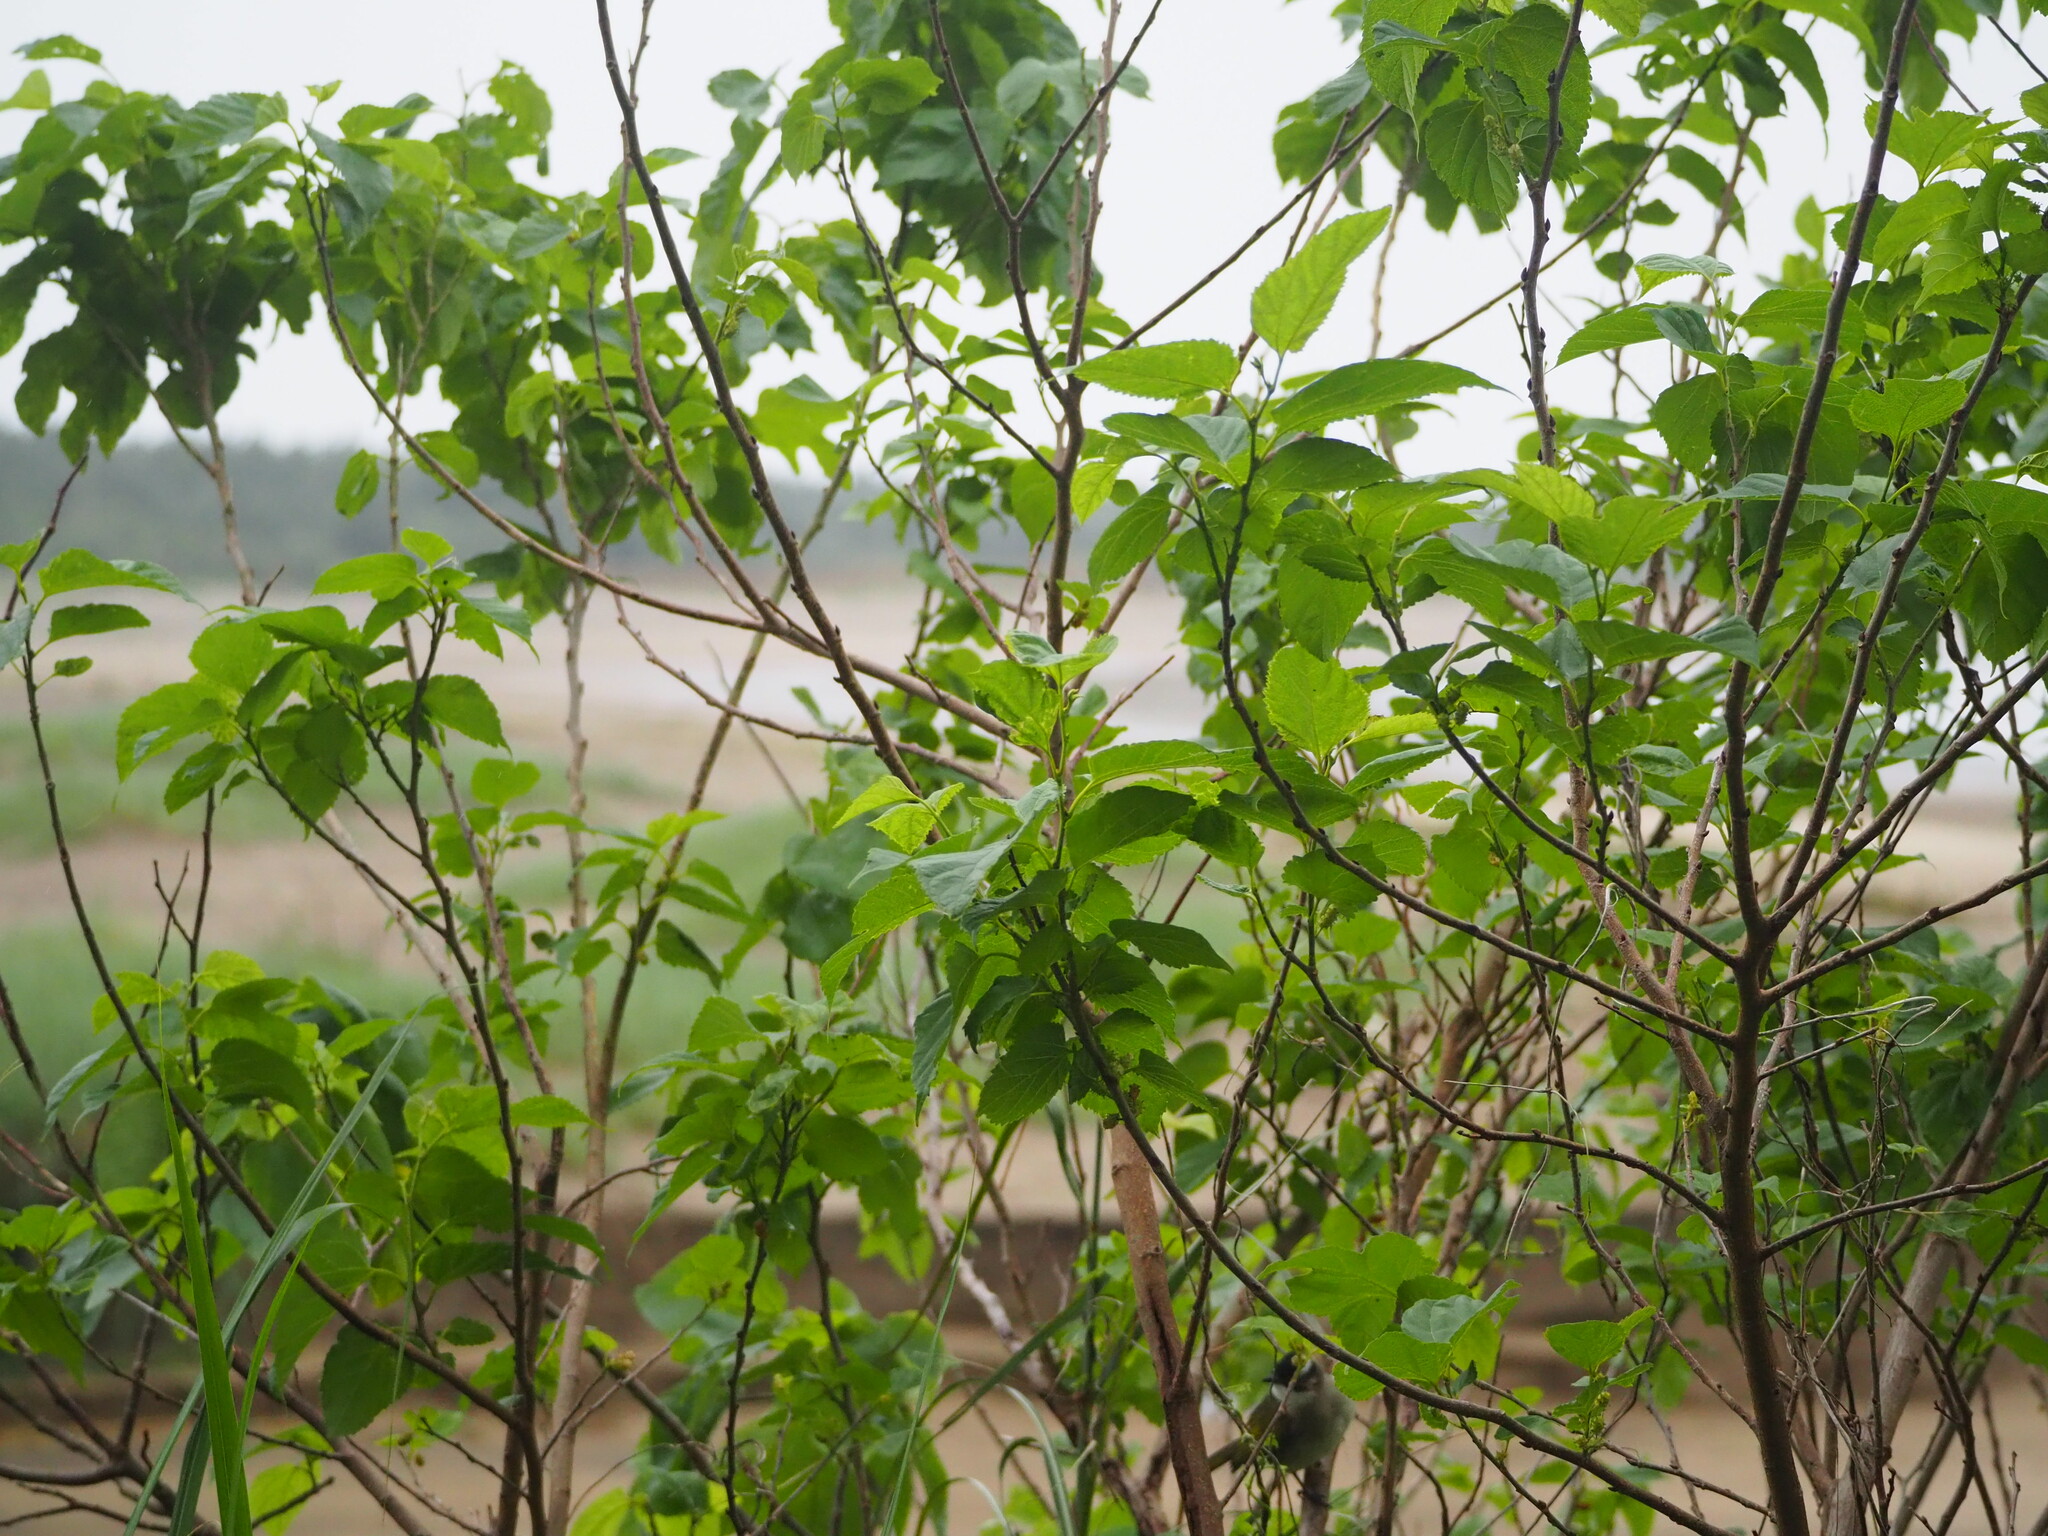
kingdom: Plantae
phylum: Tracheophyta
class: Magnoliopsida
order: Rosales
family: Moraceae
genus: Morus
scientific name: Morus indica
